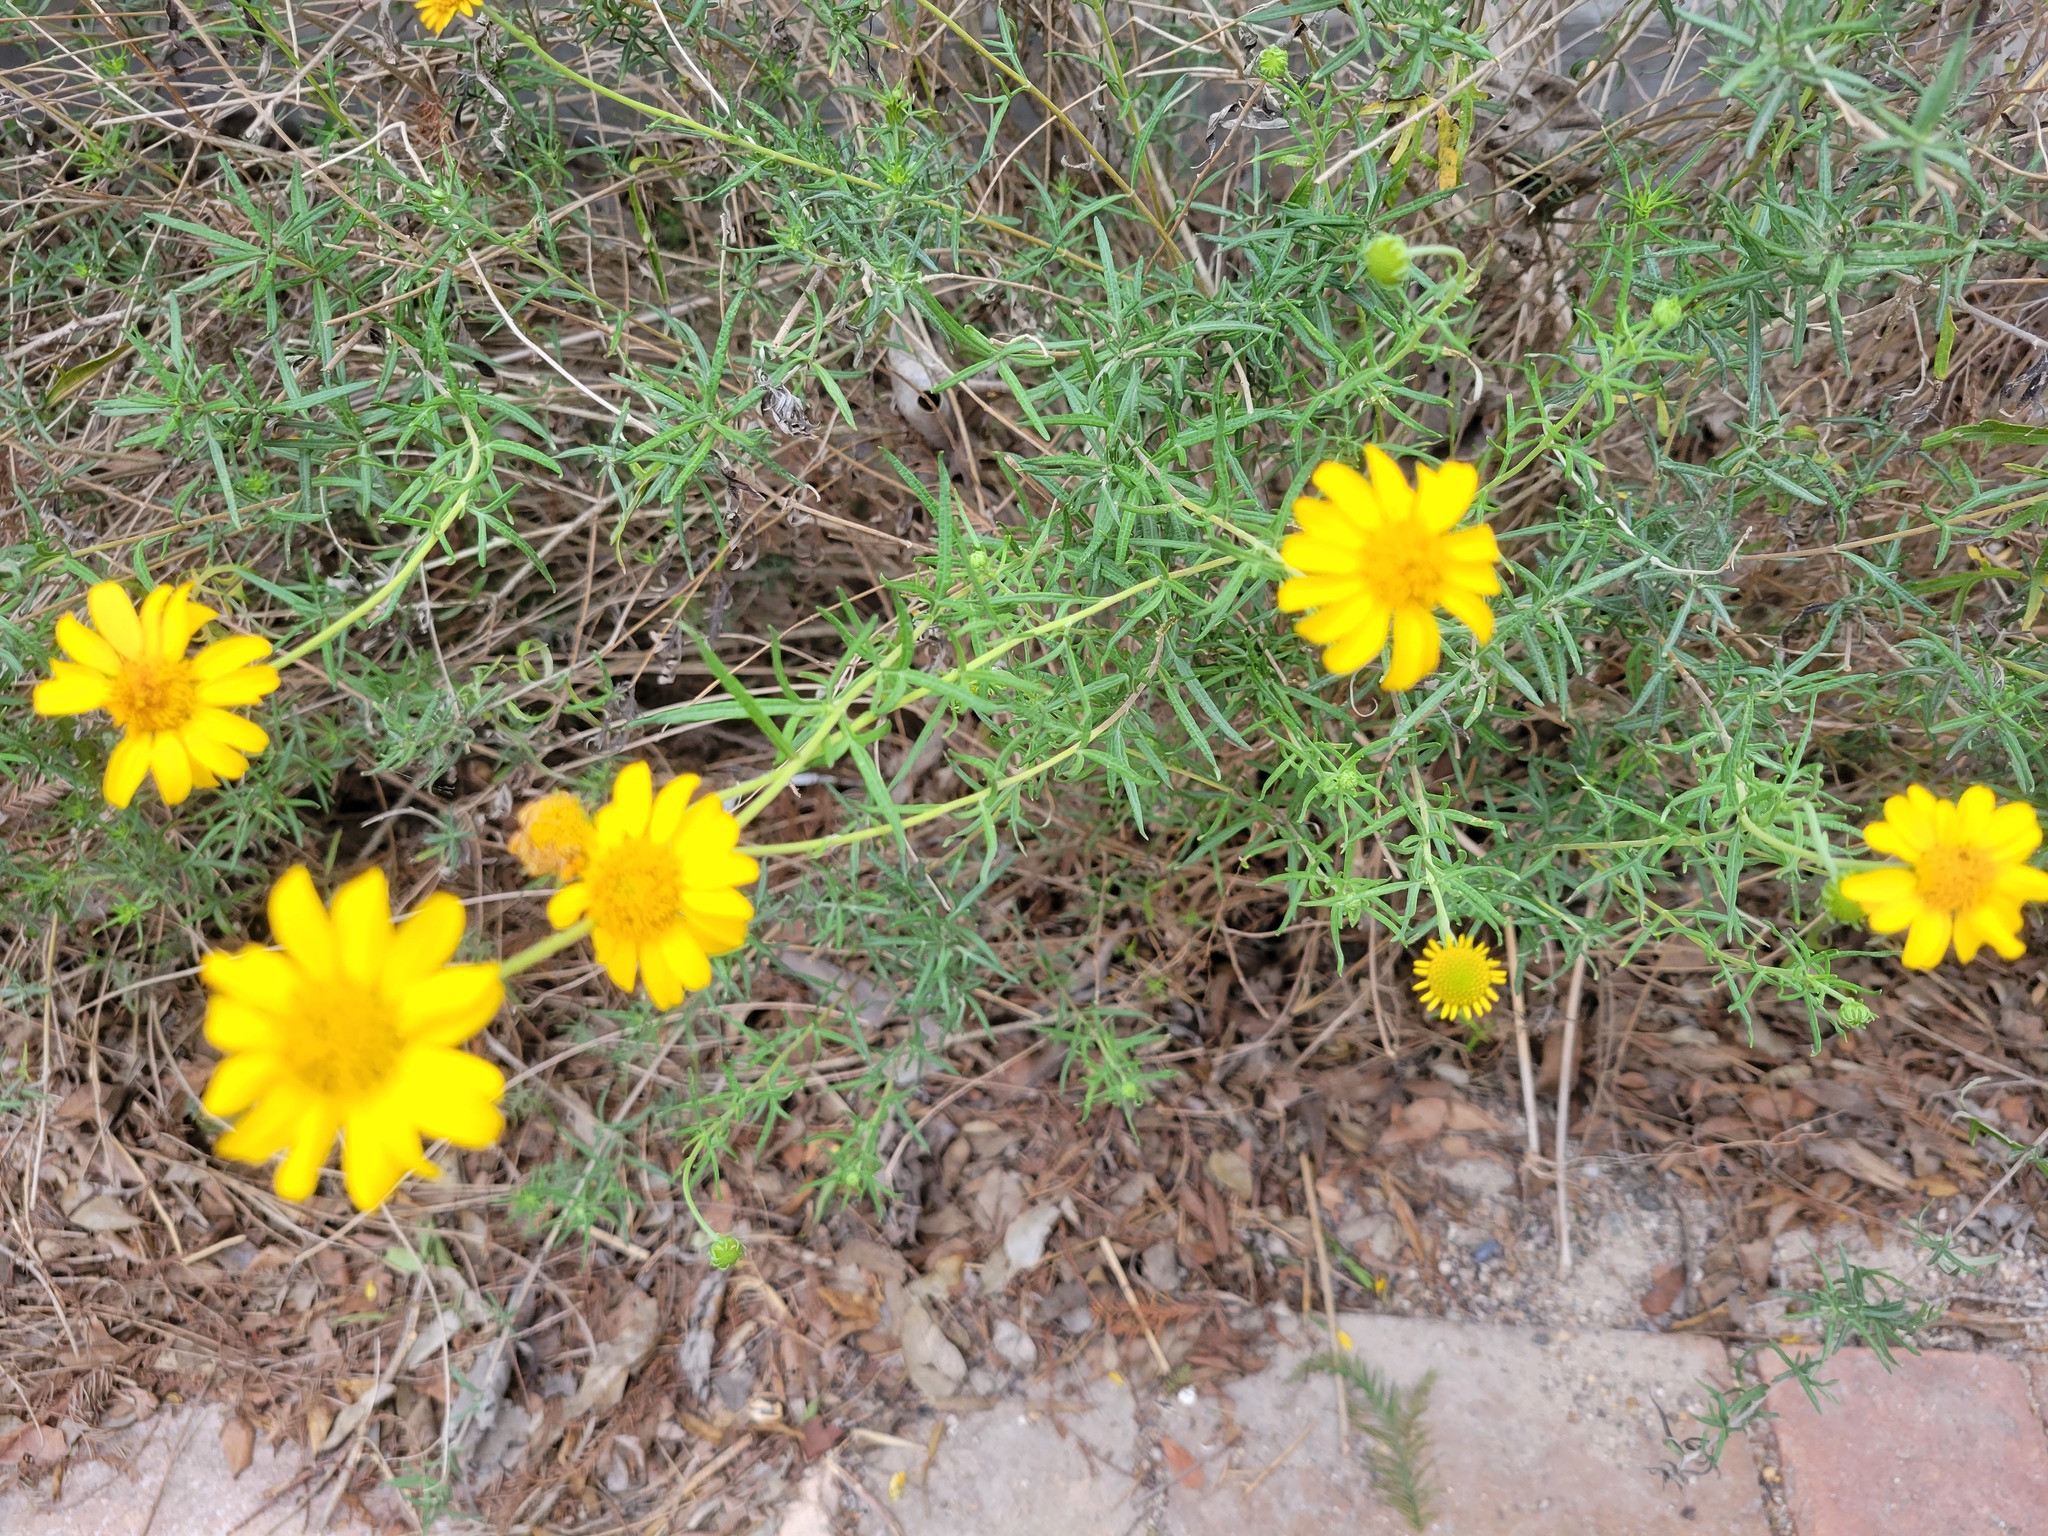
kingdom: Plantae
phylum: Tracheophyta
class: Magnoliopsida
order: Asterales
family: Asteraceae
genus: Sidneya
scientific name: Sidneya tenuifolia
